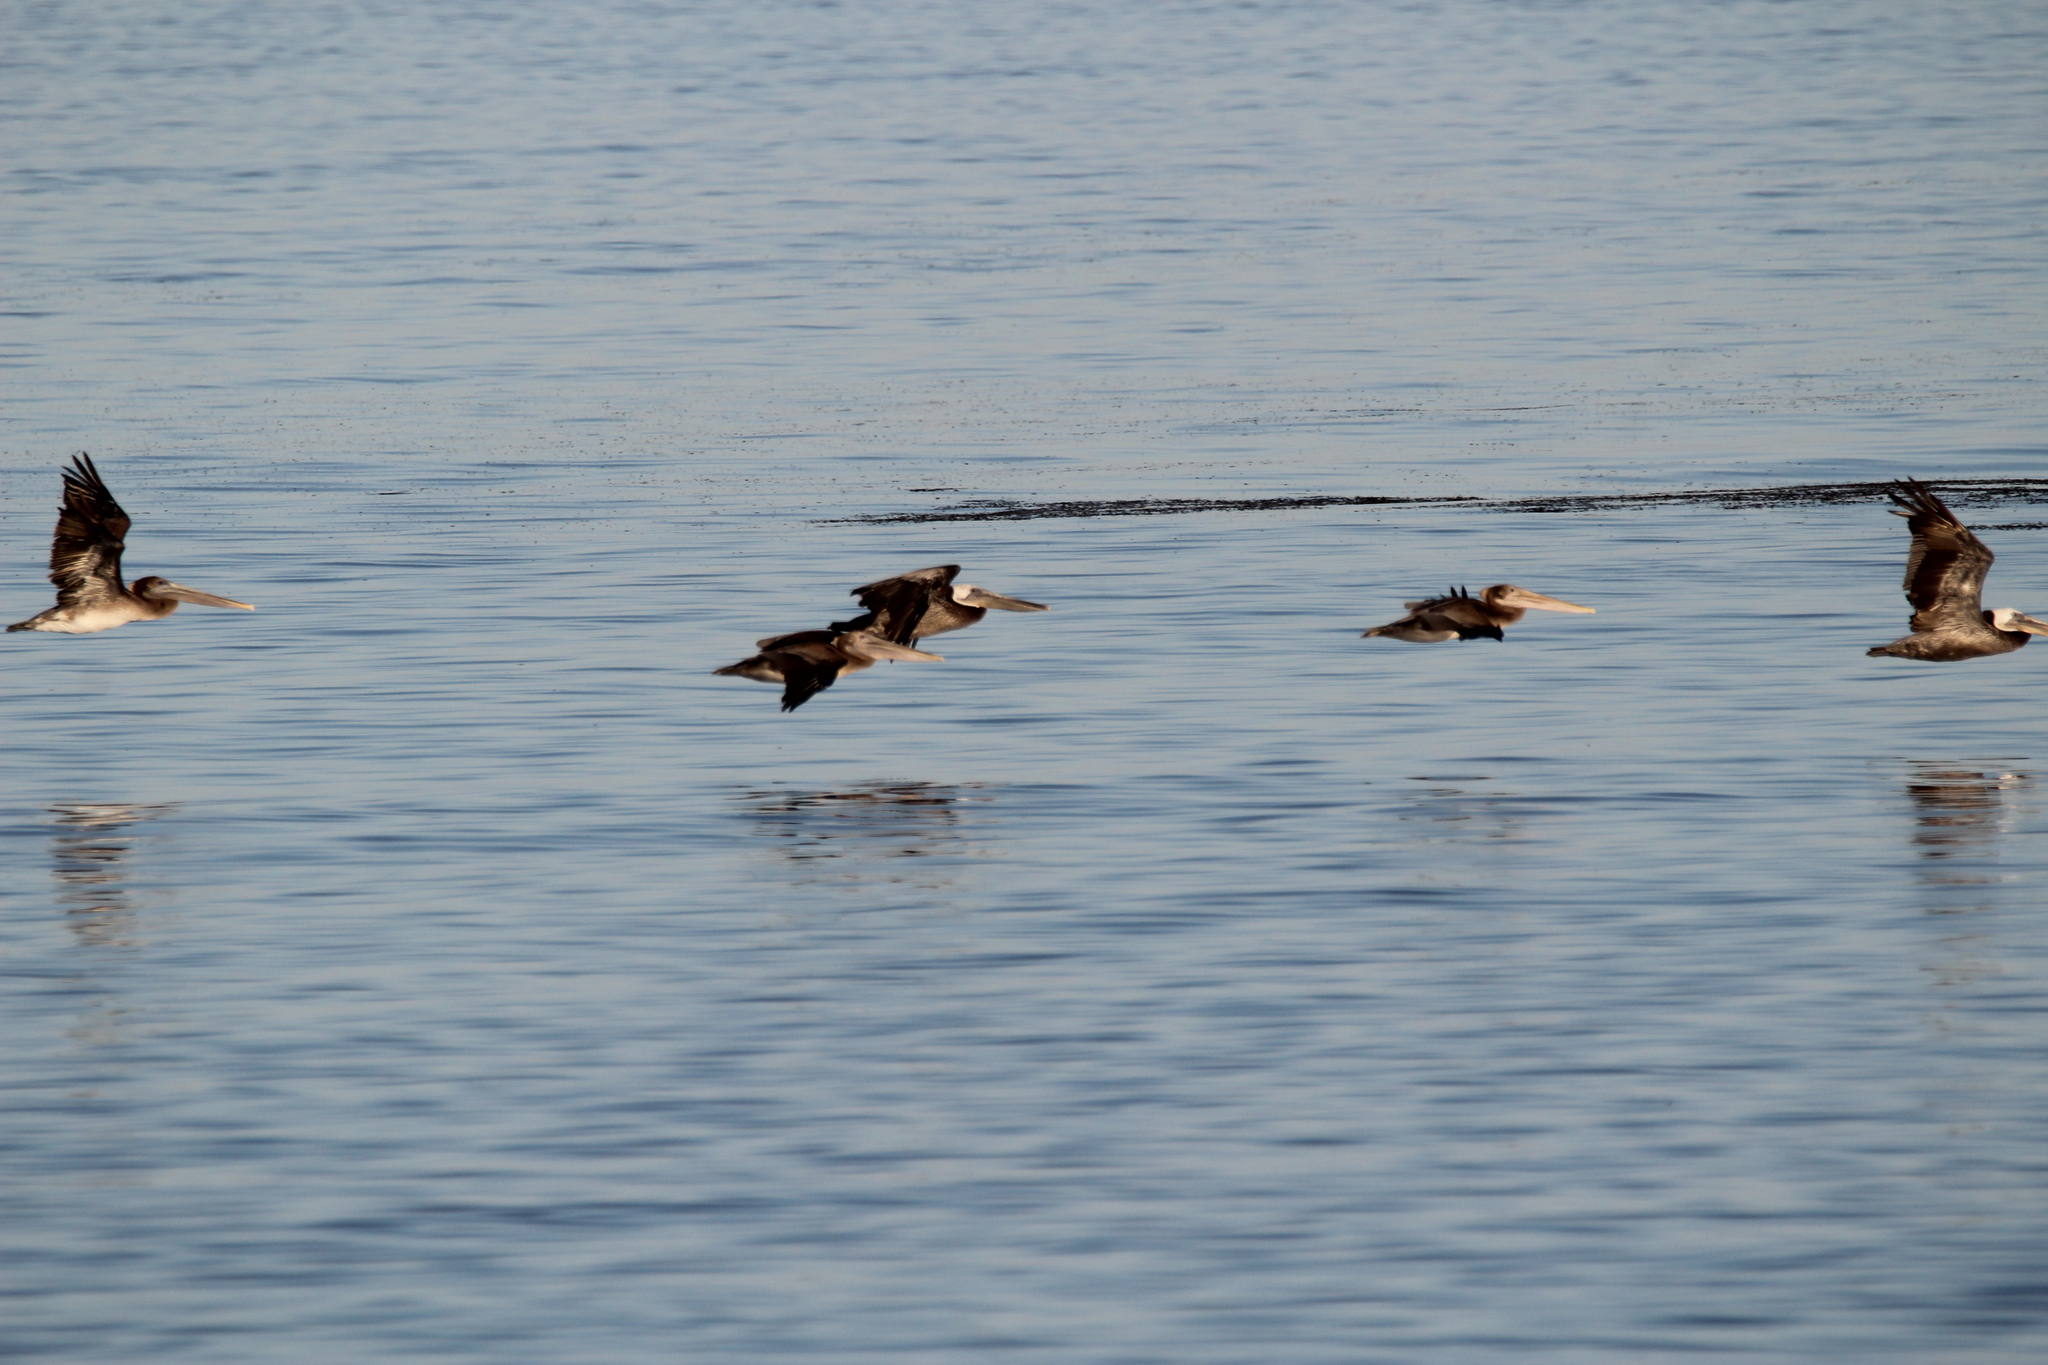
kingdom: Animalia
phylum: Chordata
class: Aves
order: Pelecaniformes
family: Pelecanidae
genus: Pelecanus
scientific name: Pelecanus occidentalis
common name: Brown pelican
